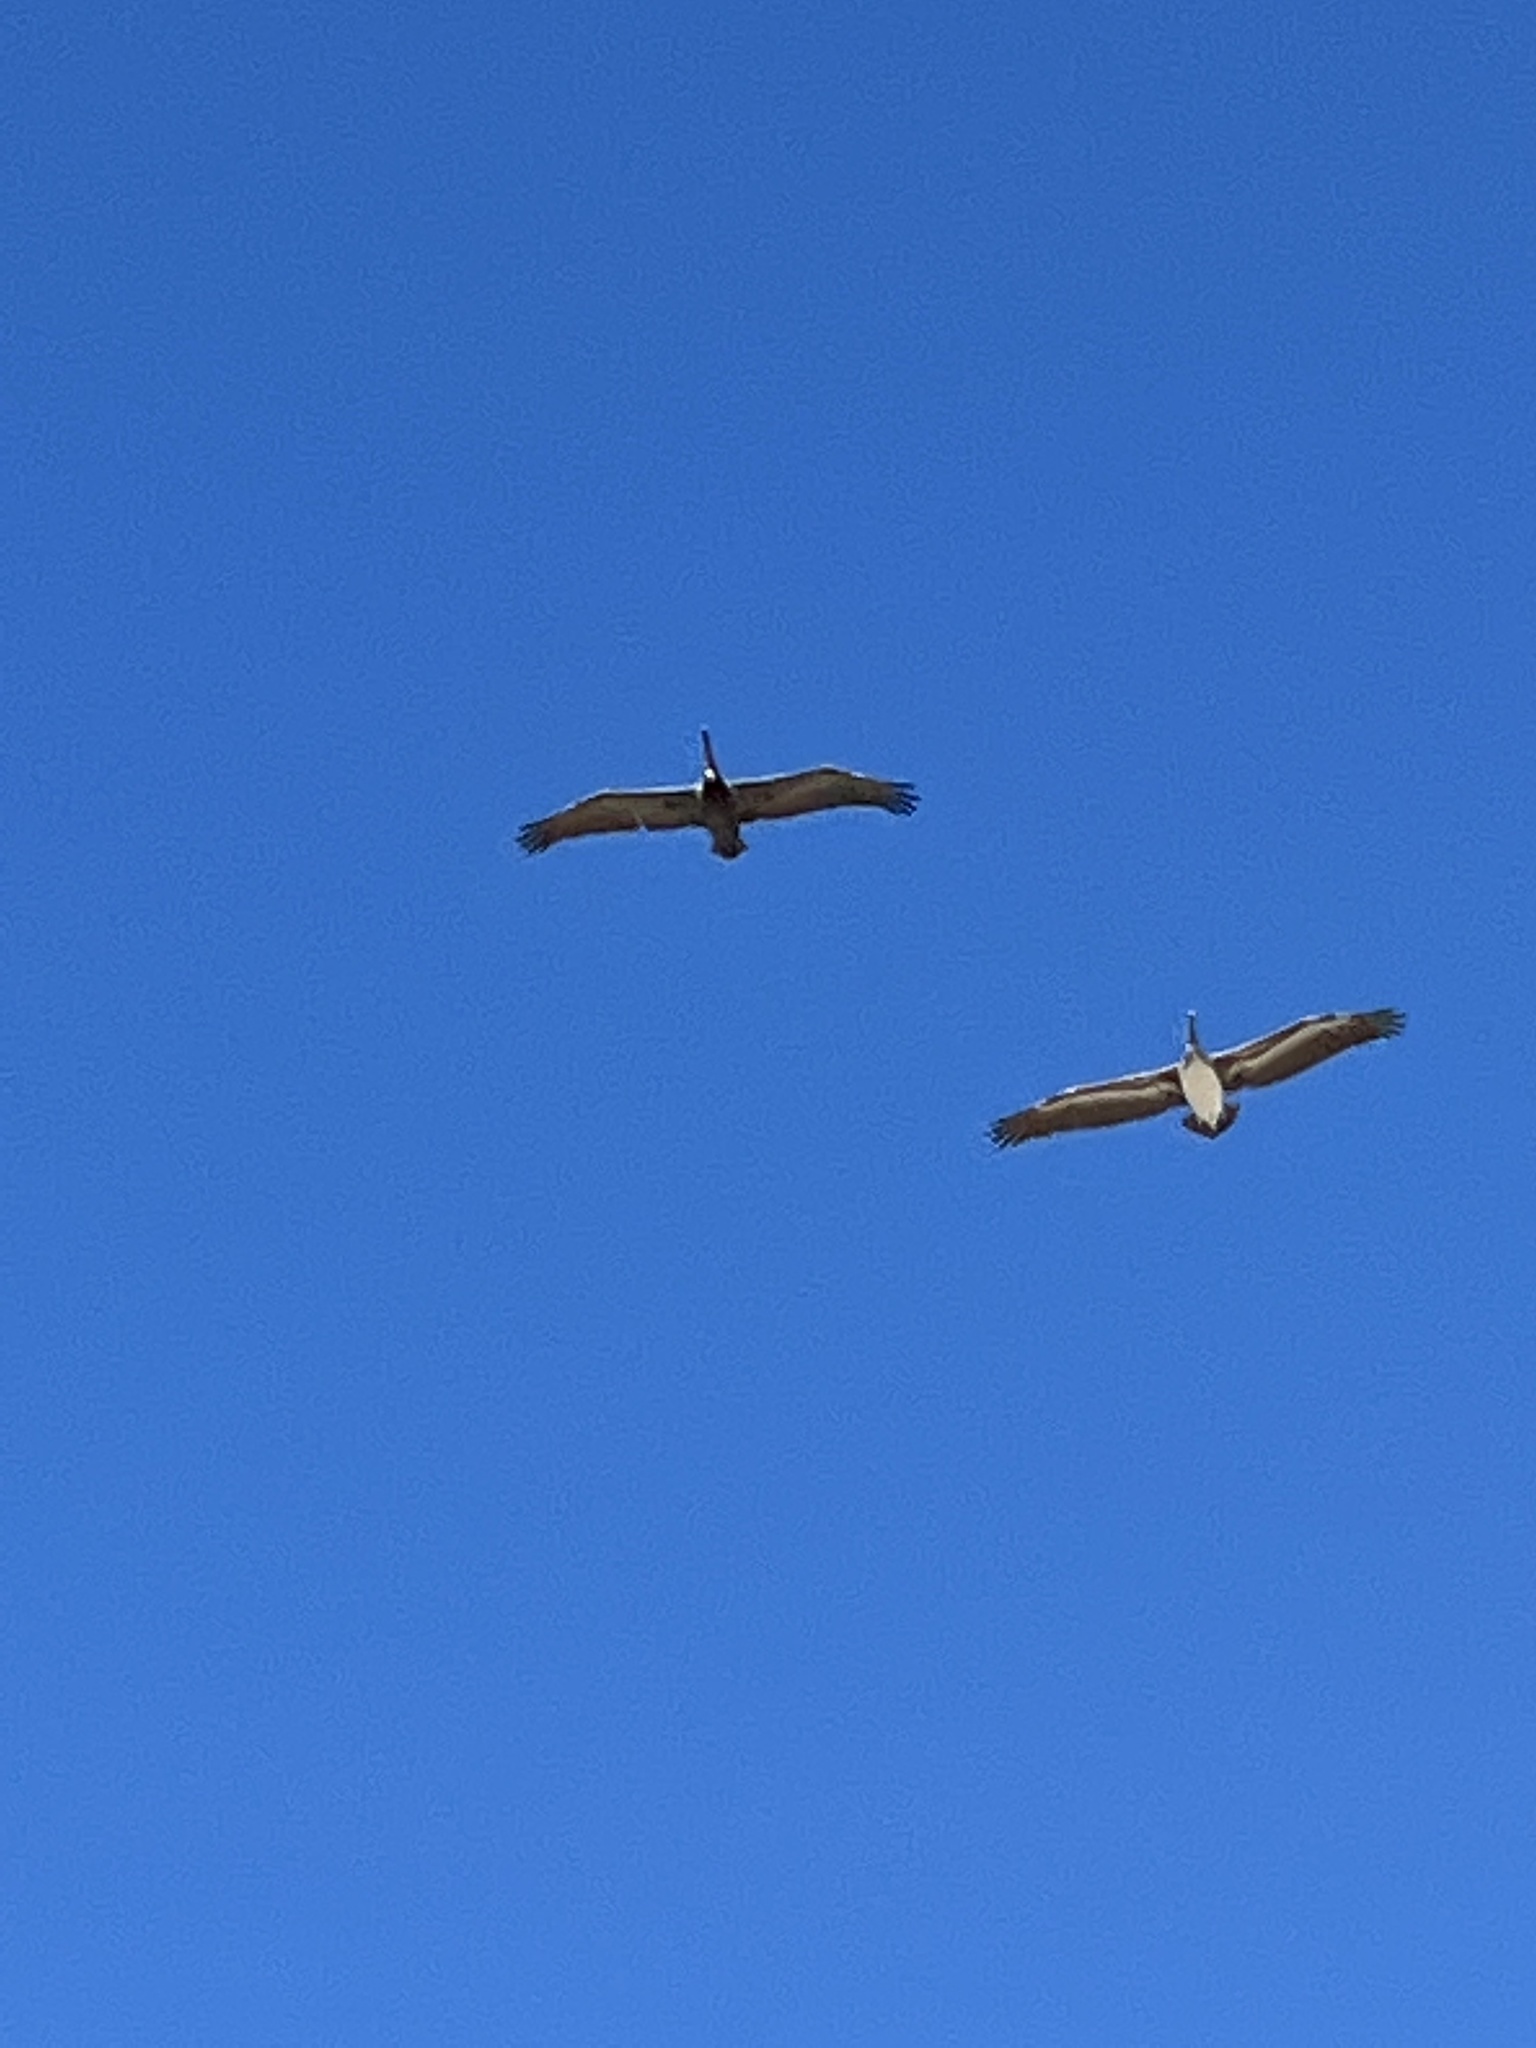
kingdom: Animalia
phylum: Chordata
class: Aves
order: Pelecaniformes
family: Pelecanidae
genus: Pelecanus
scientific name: Pelecanus occidentalis
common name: Brown pelican
